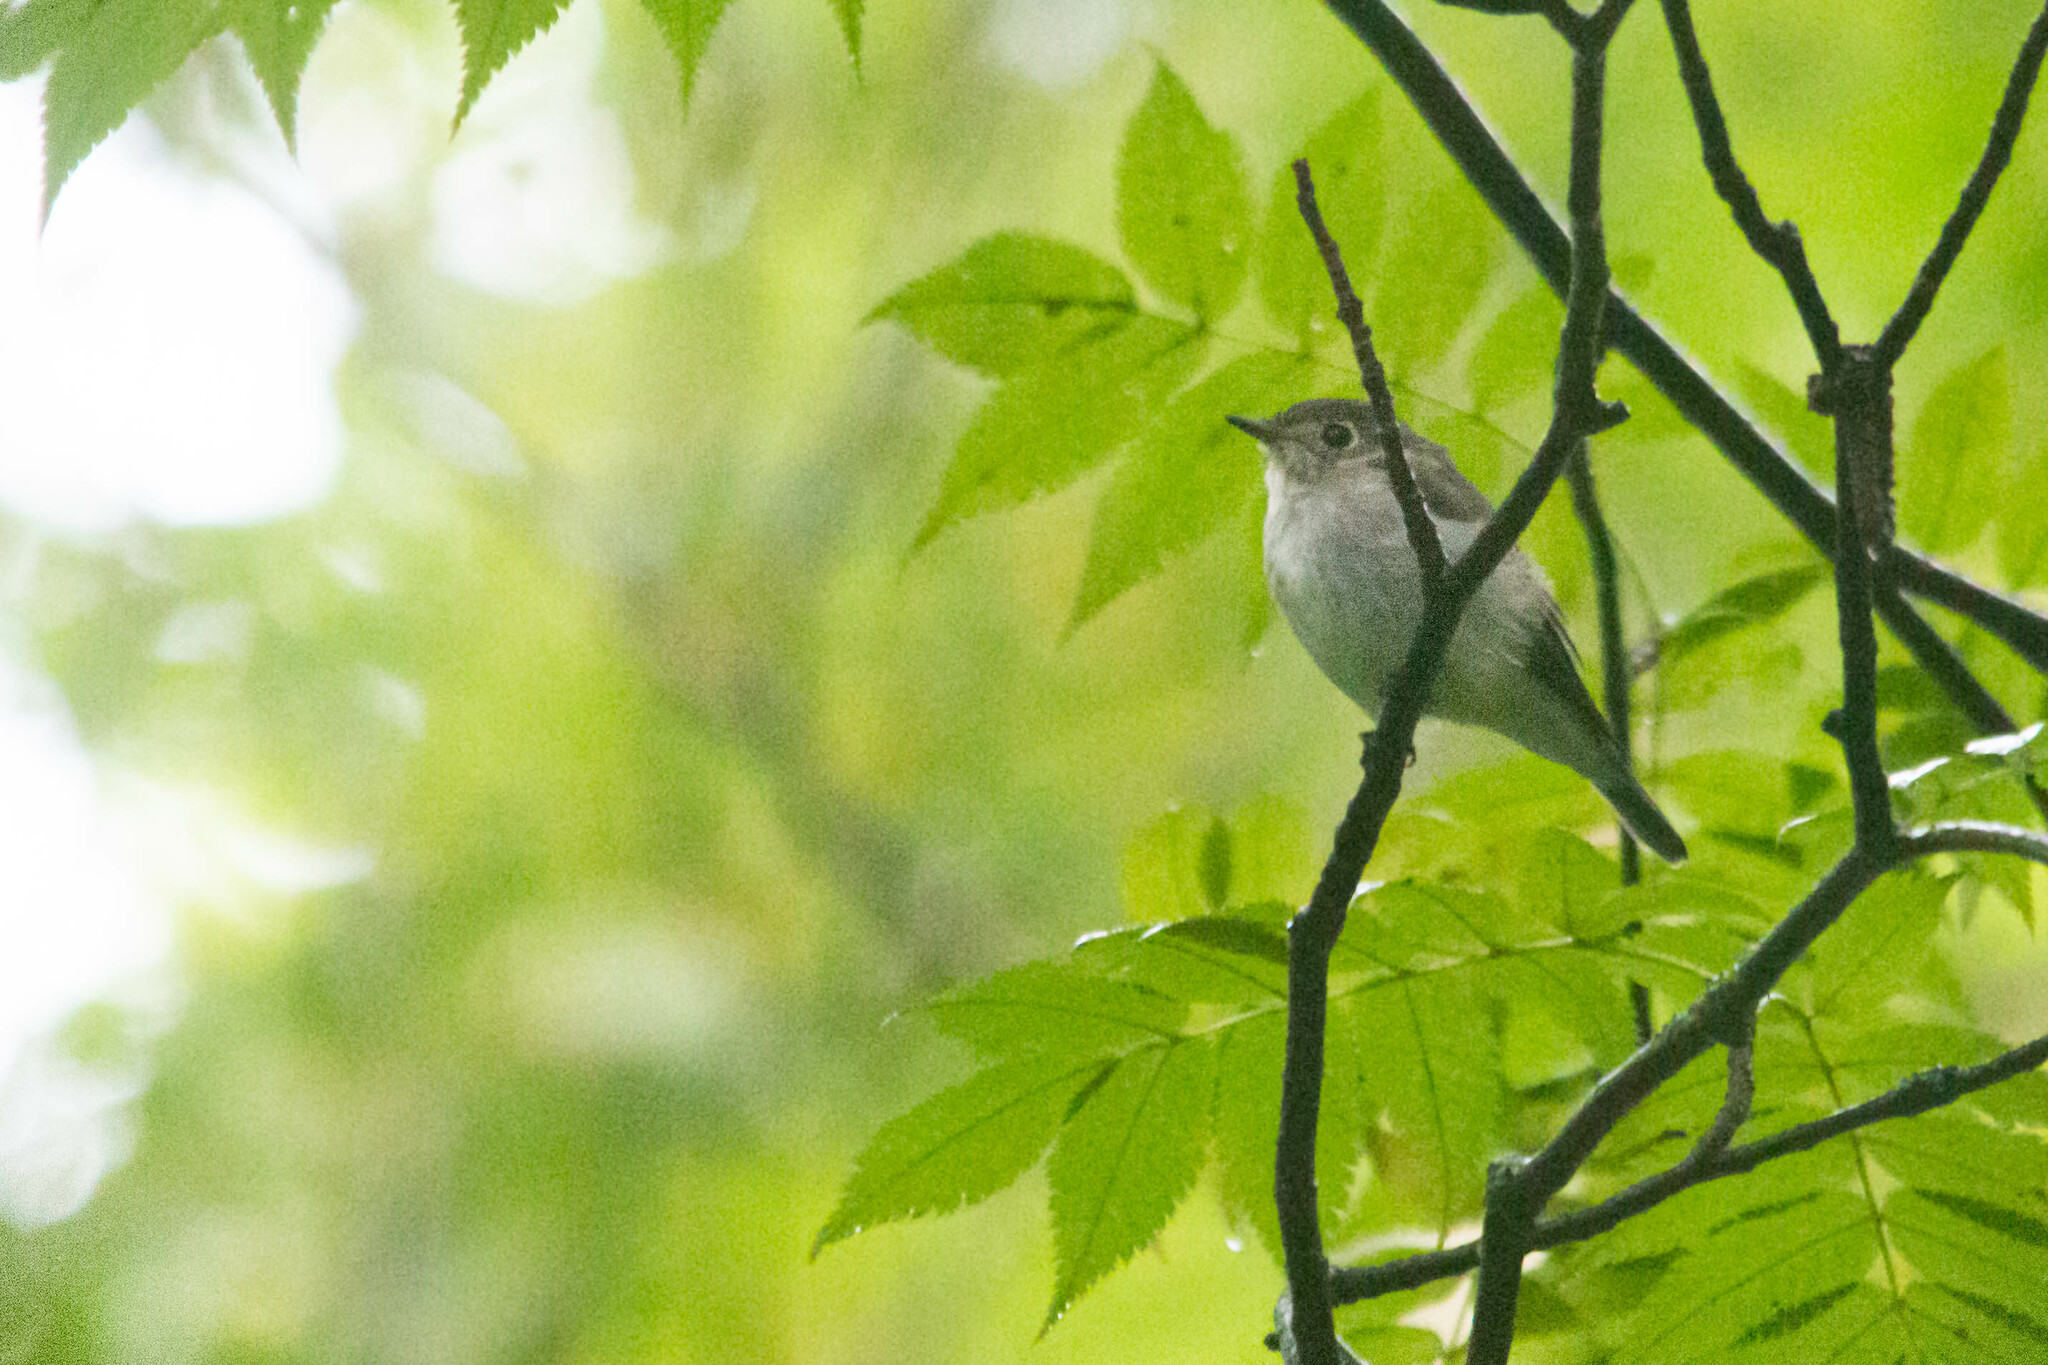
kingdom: Animalia
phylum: Chordata
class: Aves
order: Passeriformes
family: Muscicapidae
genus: Muscicapa
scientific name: Muscicapa latirostris
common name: Asian brown flycatcher
